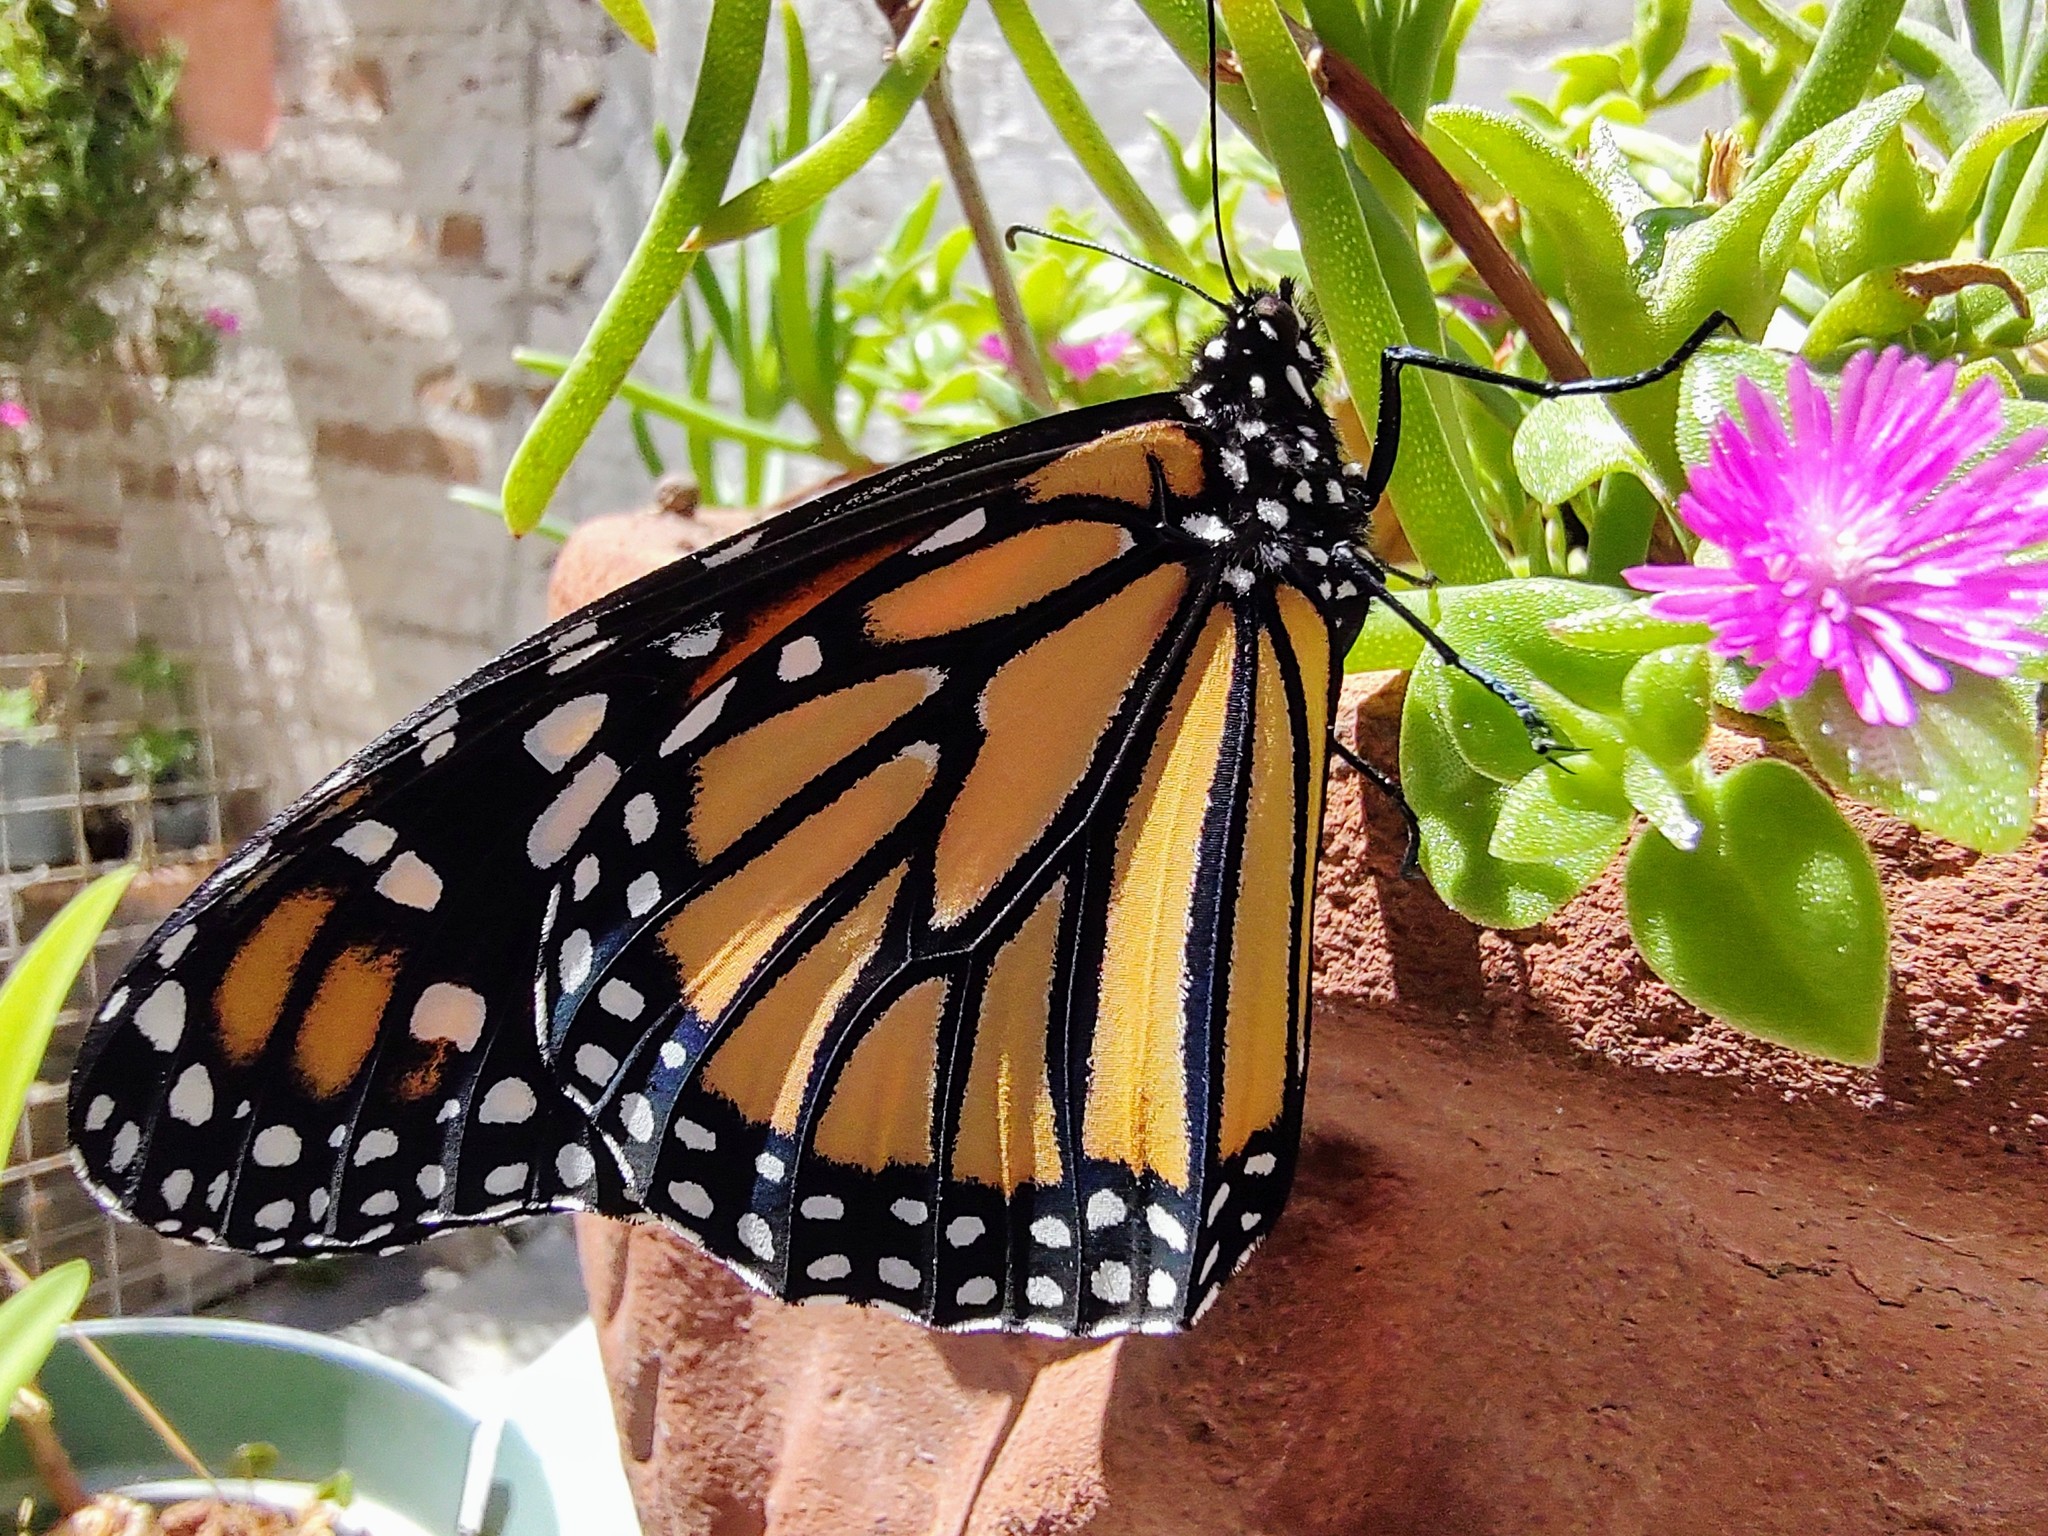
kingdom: Animalia
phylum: Arthropoda
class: Insecta
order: Lepidoptera
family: Nymphalidae
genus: Danaus
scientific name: Danaus plexippus
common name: Monarch
